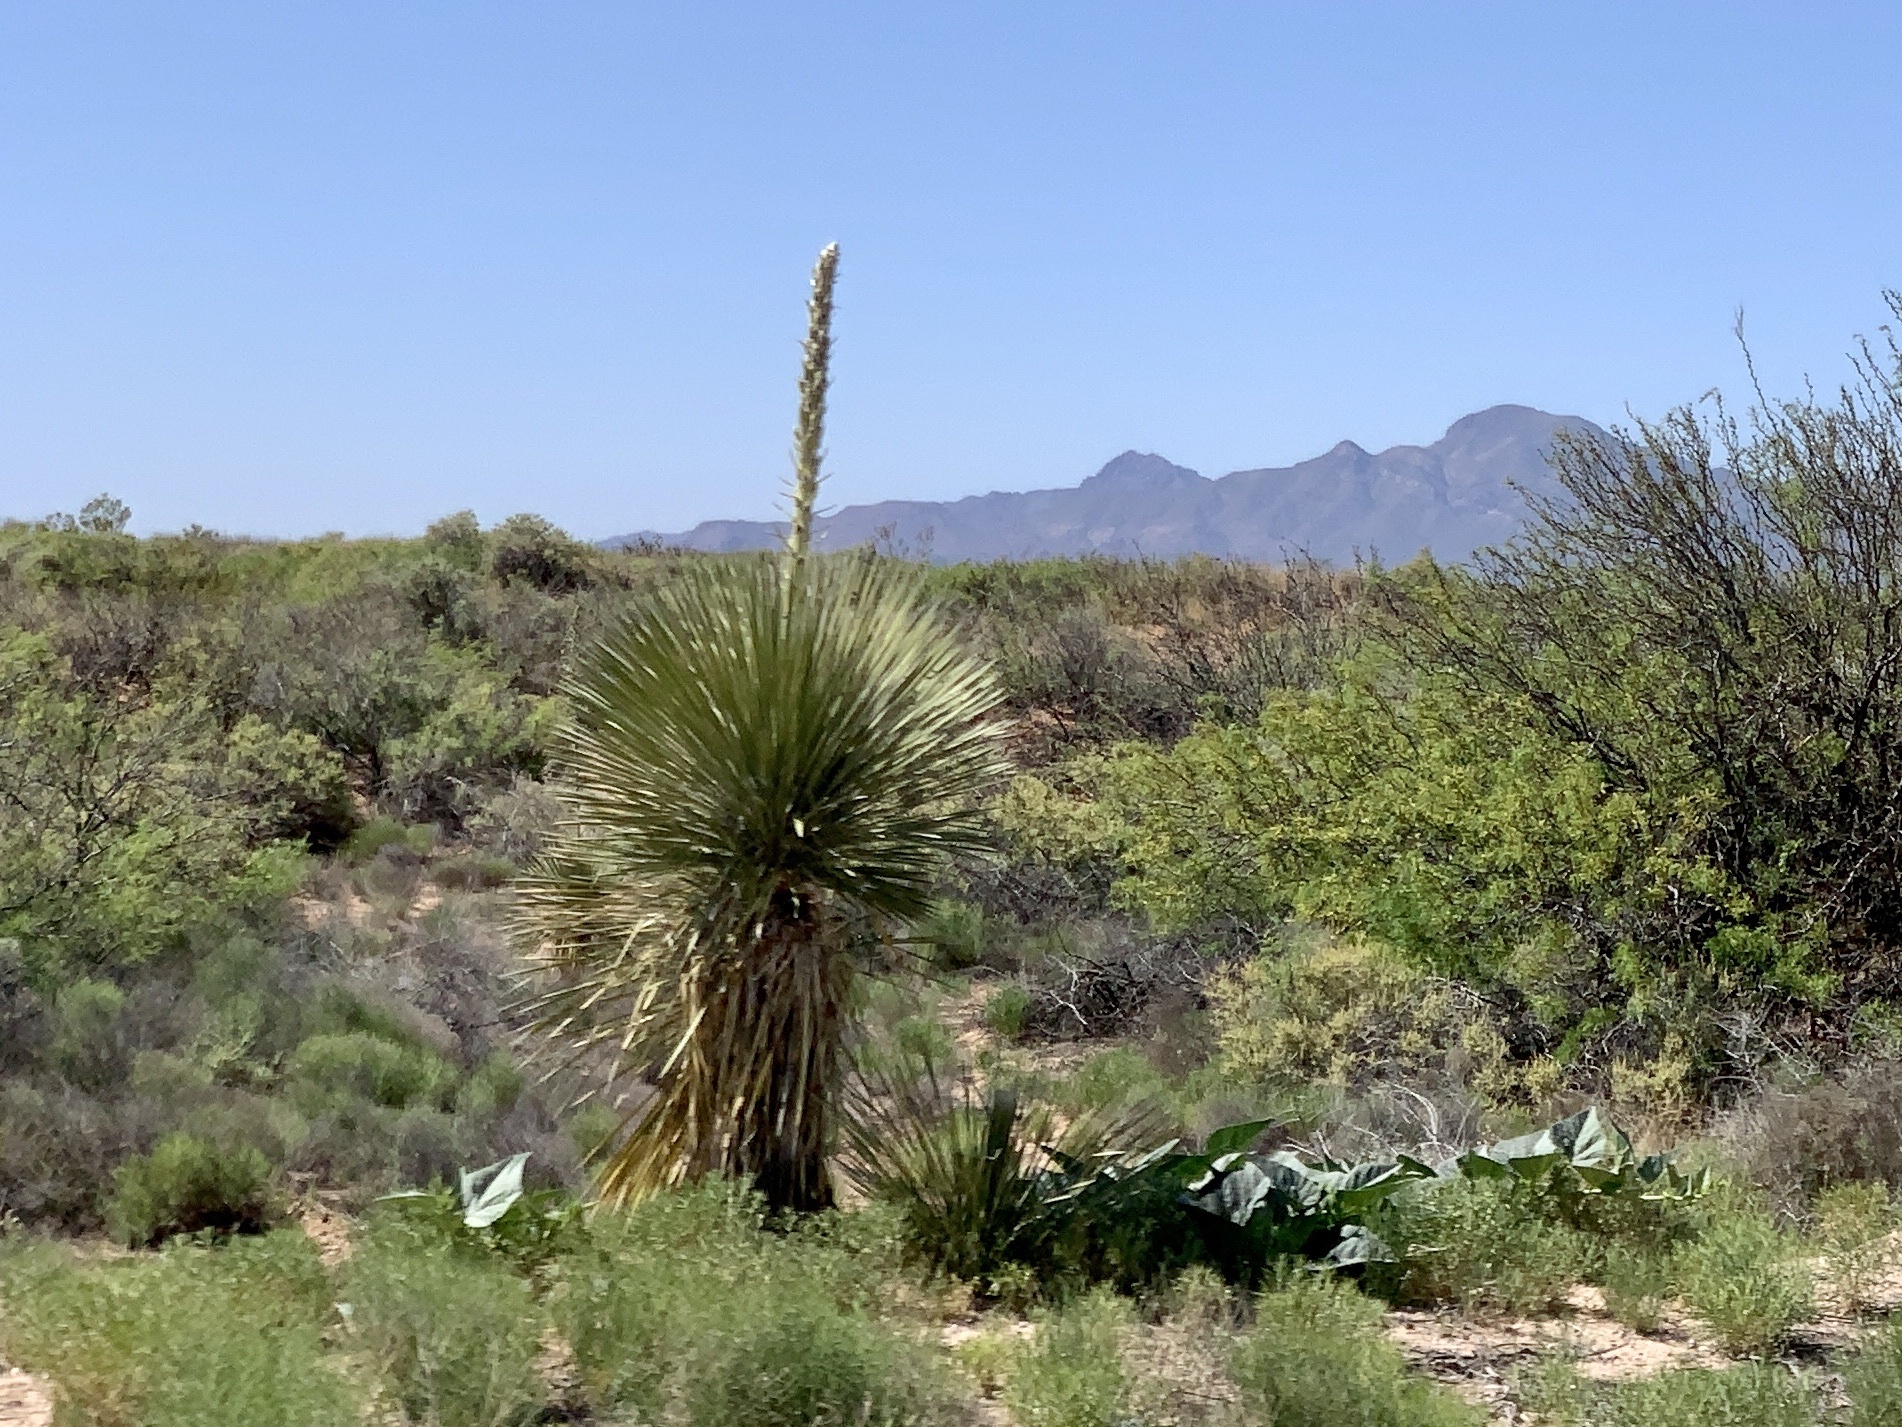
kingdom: Plantae
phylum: Tracheophyta
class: Liliopsida
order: Asparagales
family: Asparagaceae
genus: Yucca
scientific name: Yucca elata
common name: Palmella
